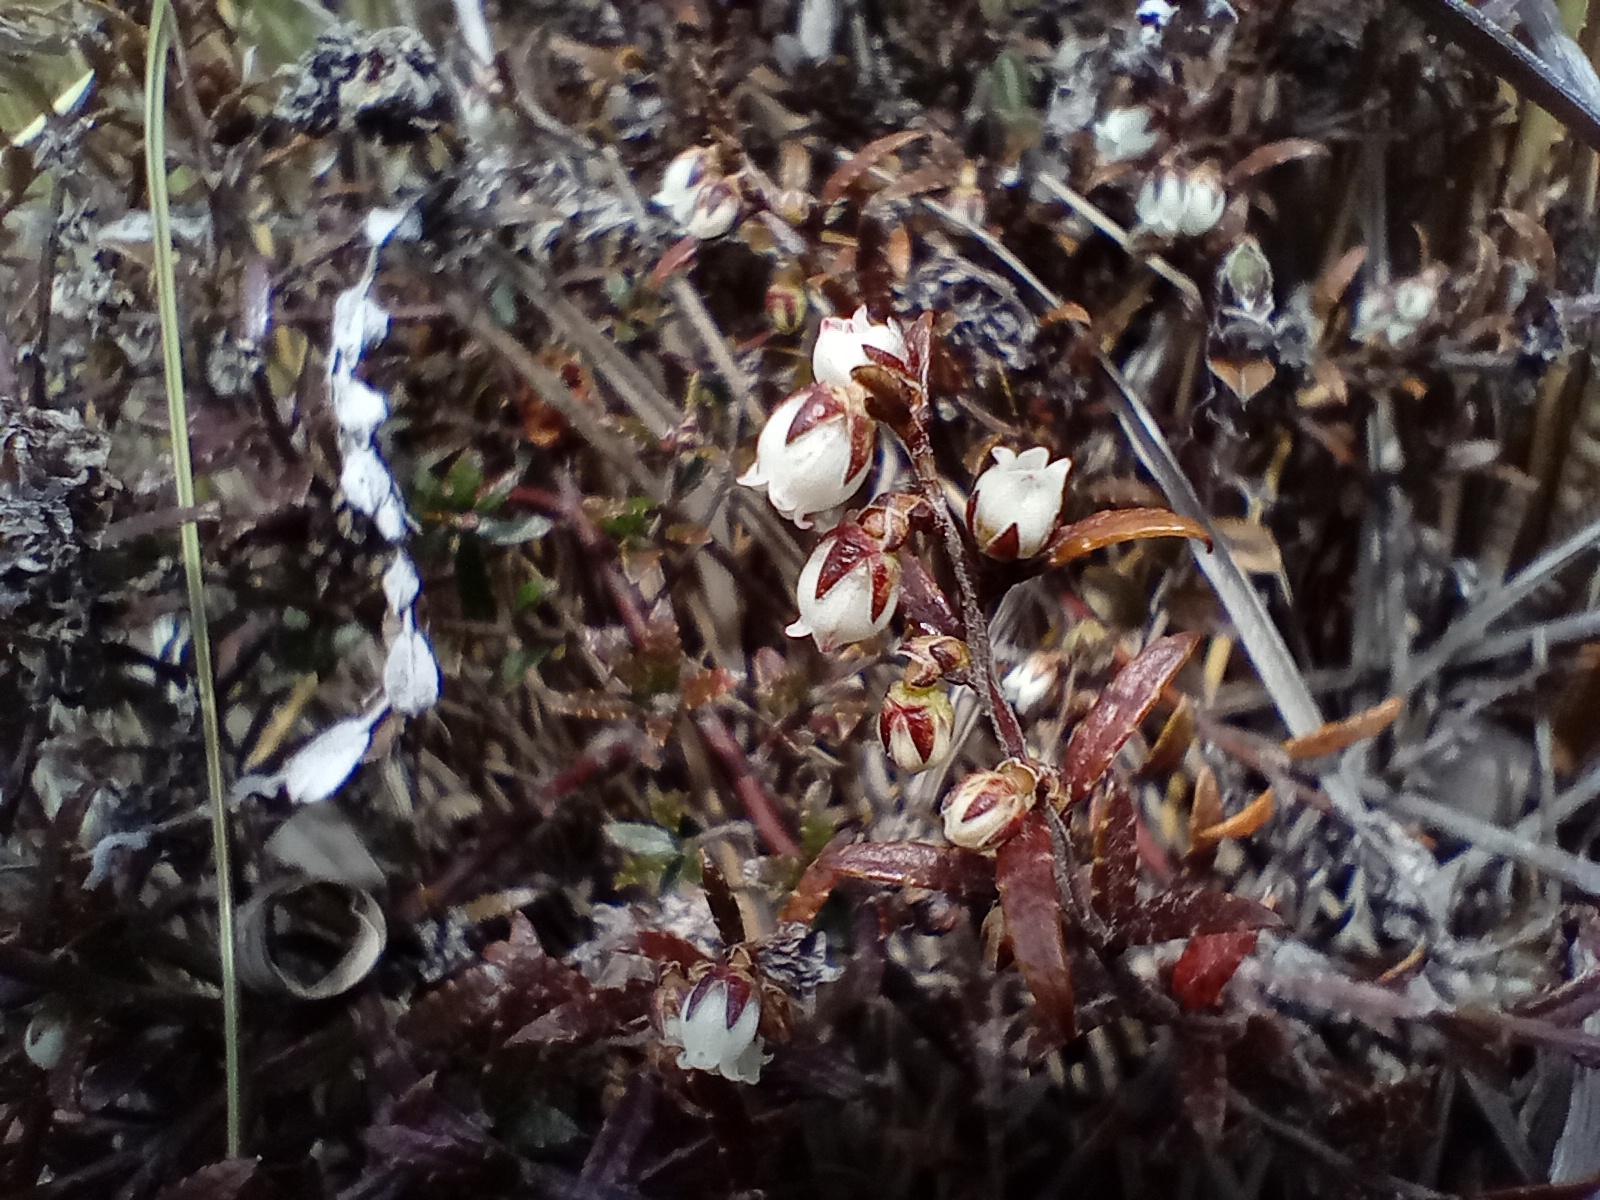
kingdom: Plantae
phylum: Tracheophyta
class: Magnoliopsida
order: Ericales
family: Ericaceae
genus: Gaultheria
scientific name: Gaultheria macrostigma
